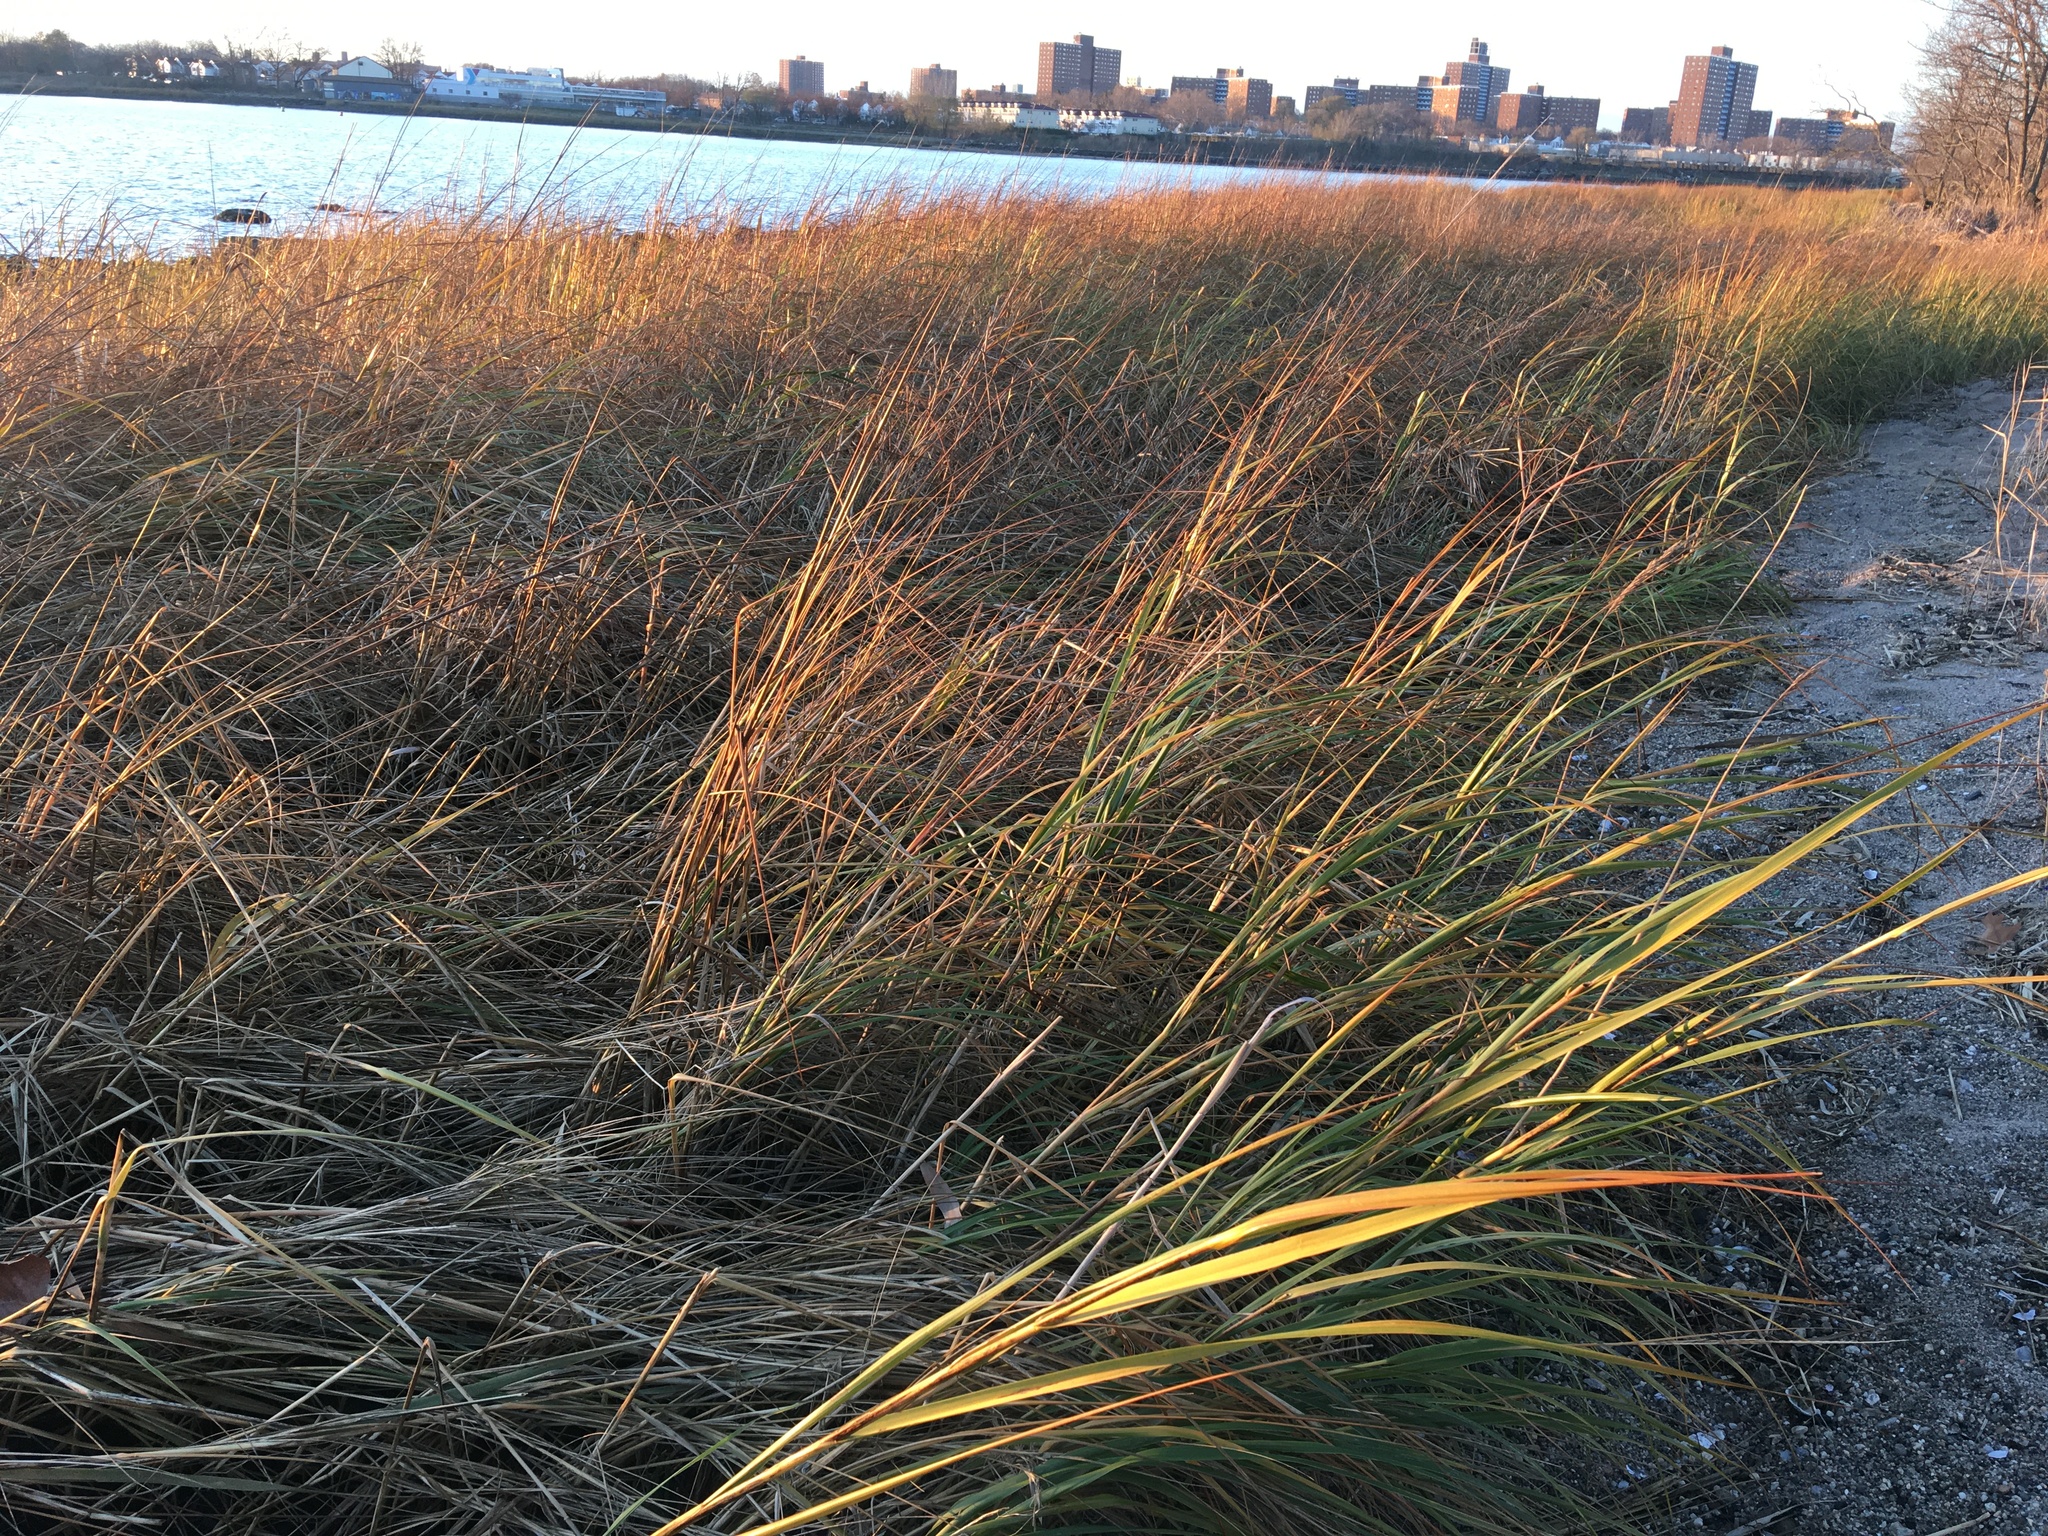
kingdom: Plantae
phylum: Tracheophyta
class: Liliopsida
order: Poales
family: Poaceae
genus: Sporobolus
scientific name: Sporobolus alterniflorus
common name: Atlantic cordgrass
